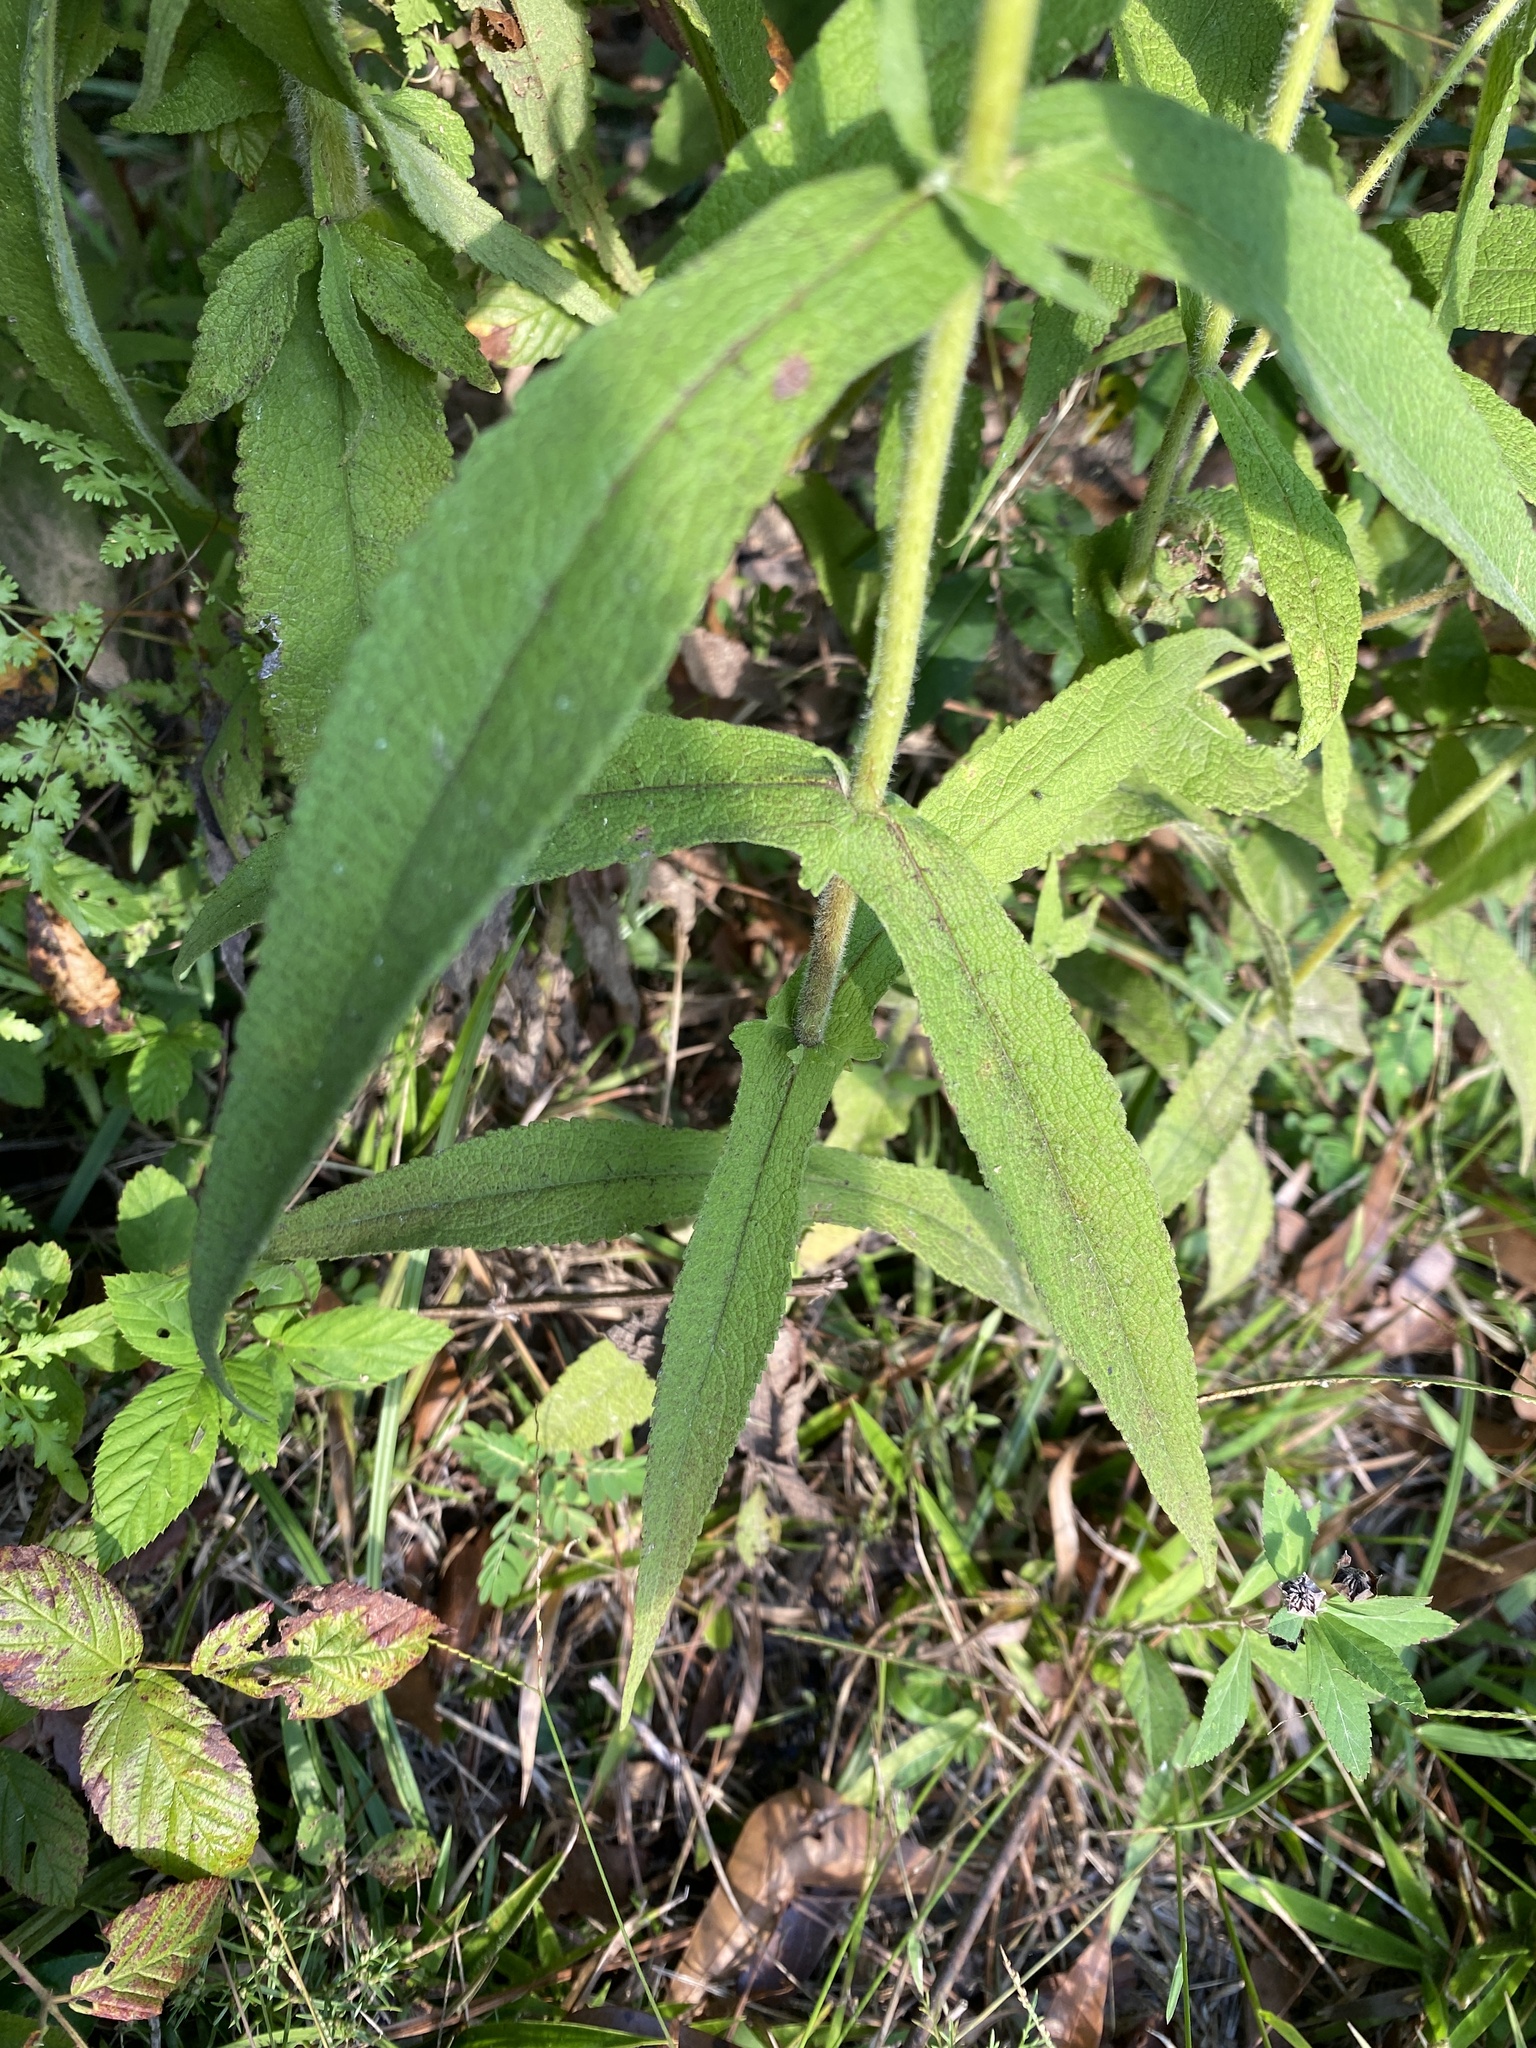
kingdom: Plantae
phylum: Tracheophyta
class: Magnoliopsida
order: Asterales
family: Asteraceae
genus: Eupatorium
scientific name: Eupatorium perfoliatum
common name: Boneset
